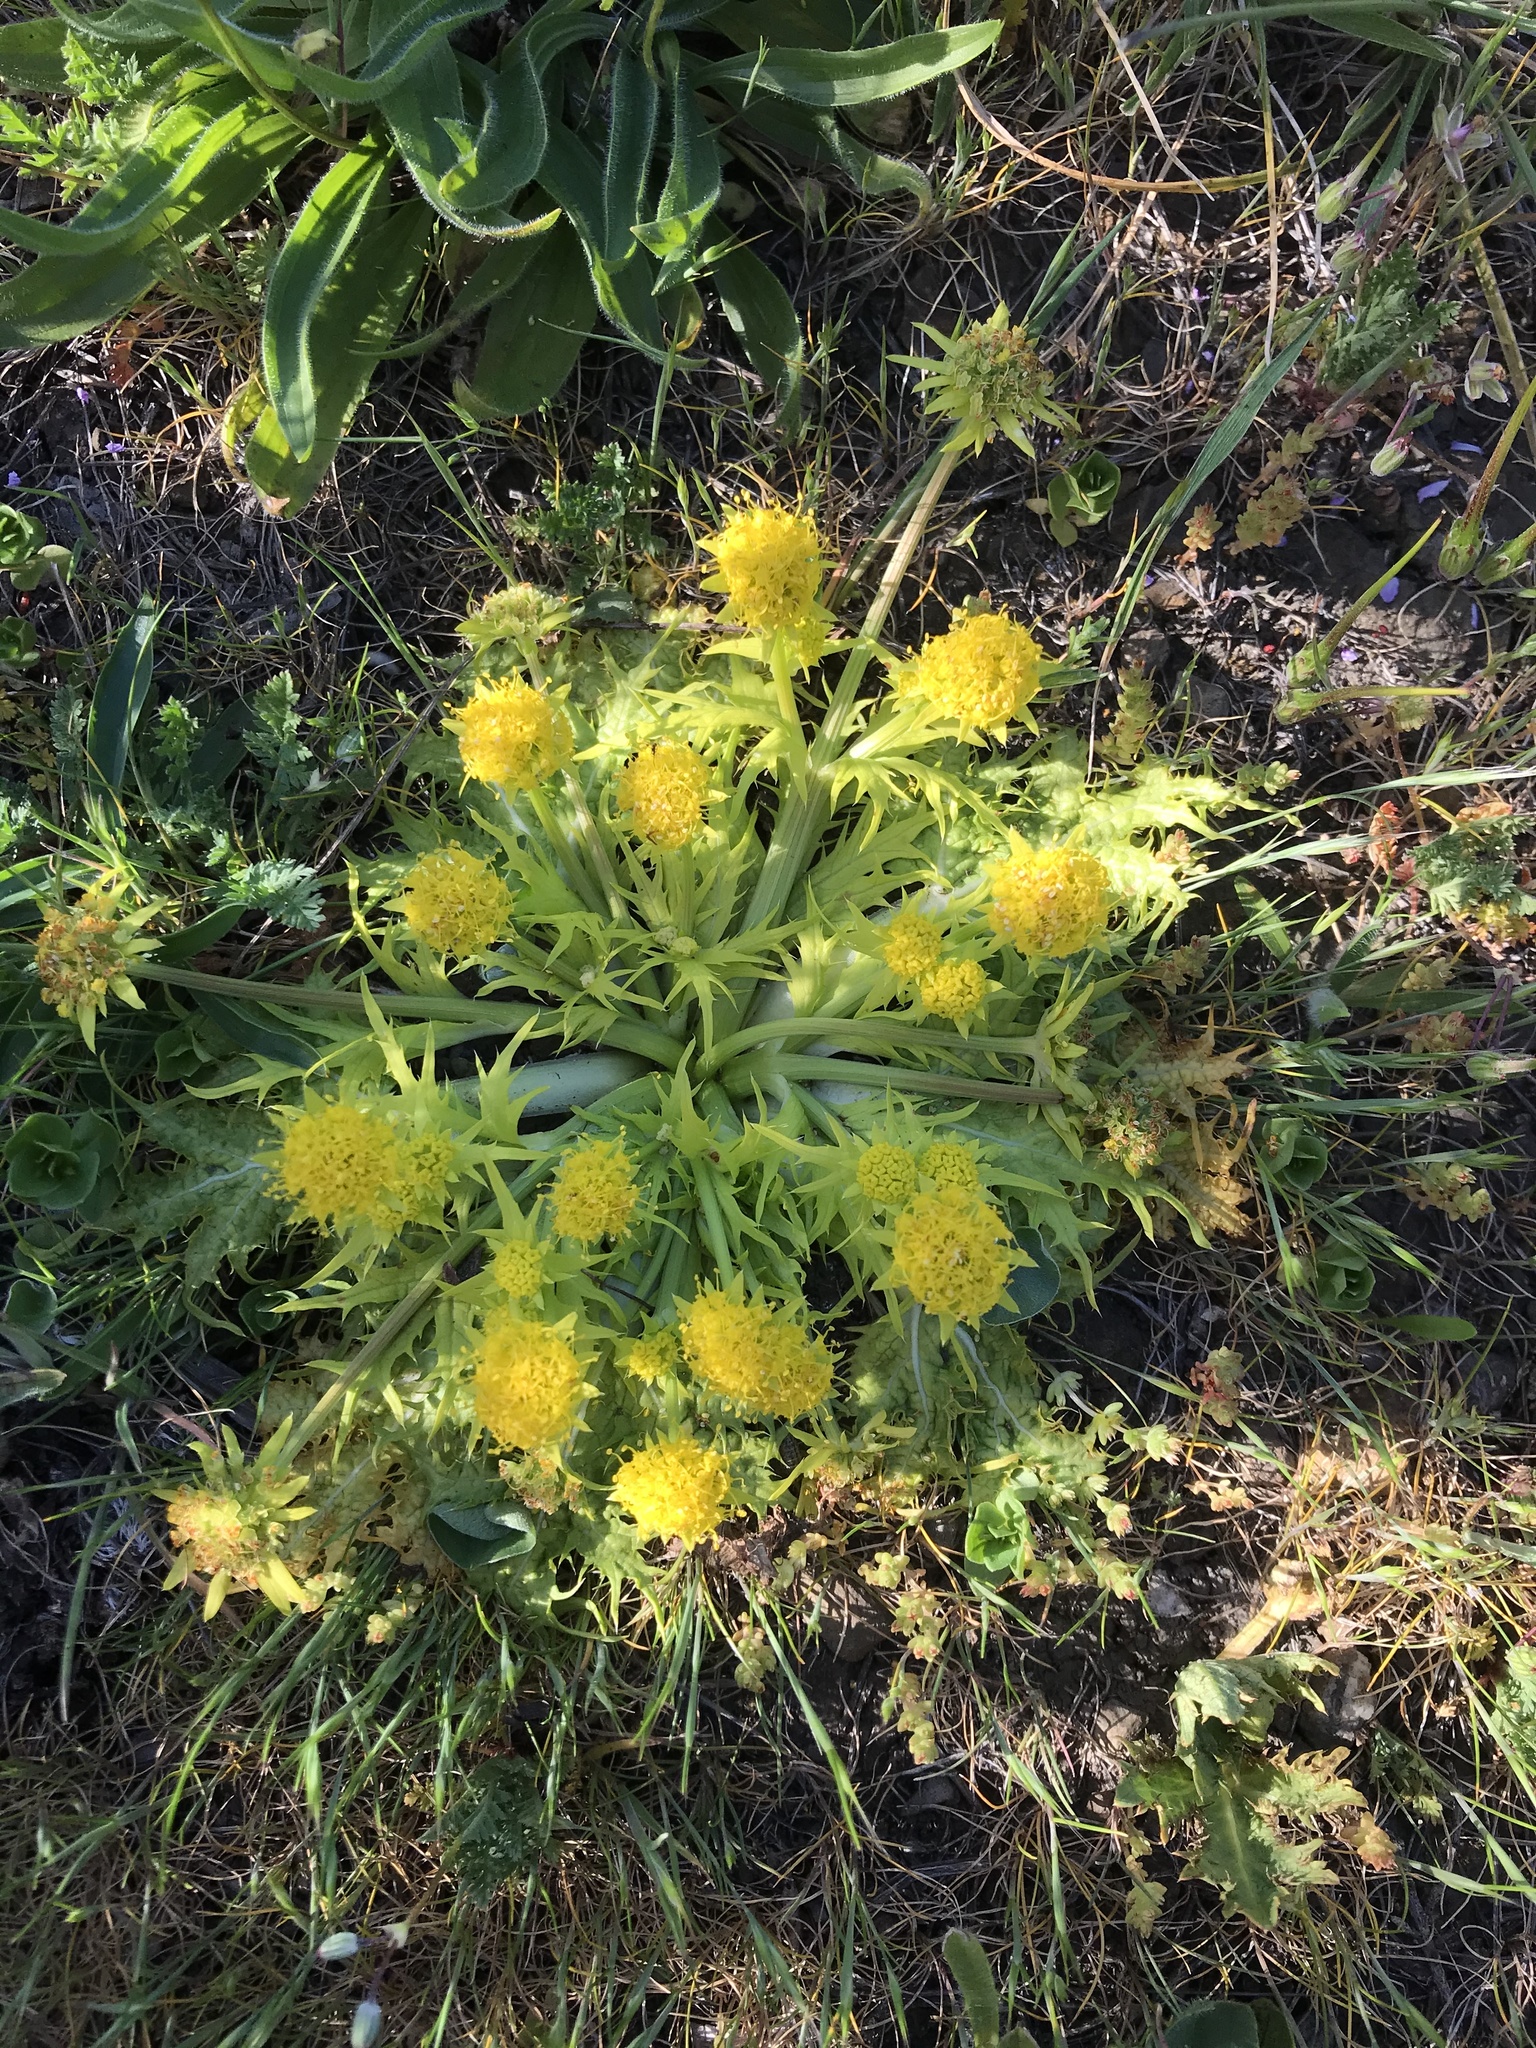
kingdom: Plantae
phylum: Tracheophyta
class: Magnoliopsida
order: Apiales
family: Apiaceae
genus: Sanicula
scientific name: Sanicula arctopoides
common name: Footsteps-of-spring
